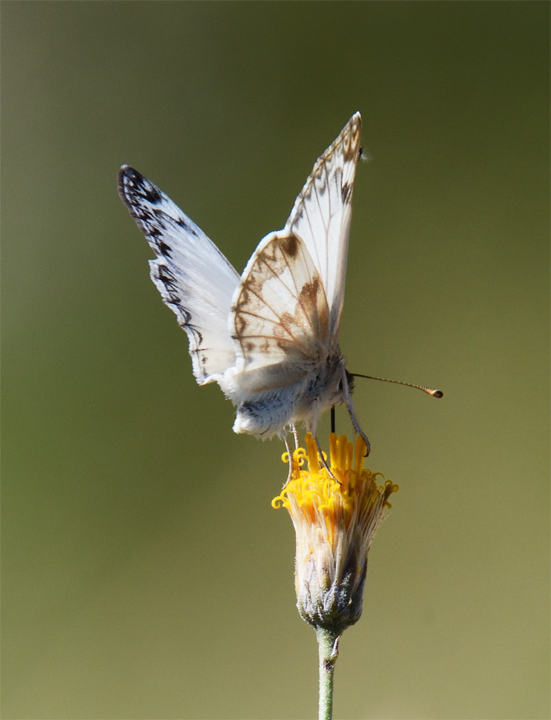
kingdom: Animalia
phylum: Arthropoda
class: Insecta
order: Lepidoptera
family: Hesperiidae
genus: Heliopetes
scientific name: Heliopetes ericetorum
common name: Northern white-skipper
